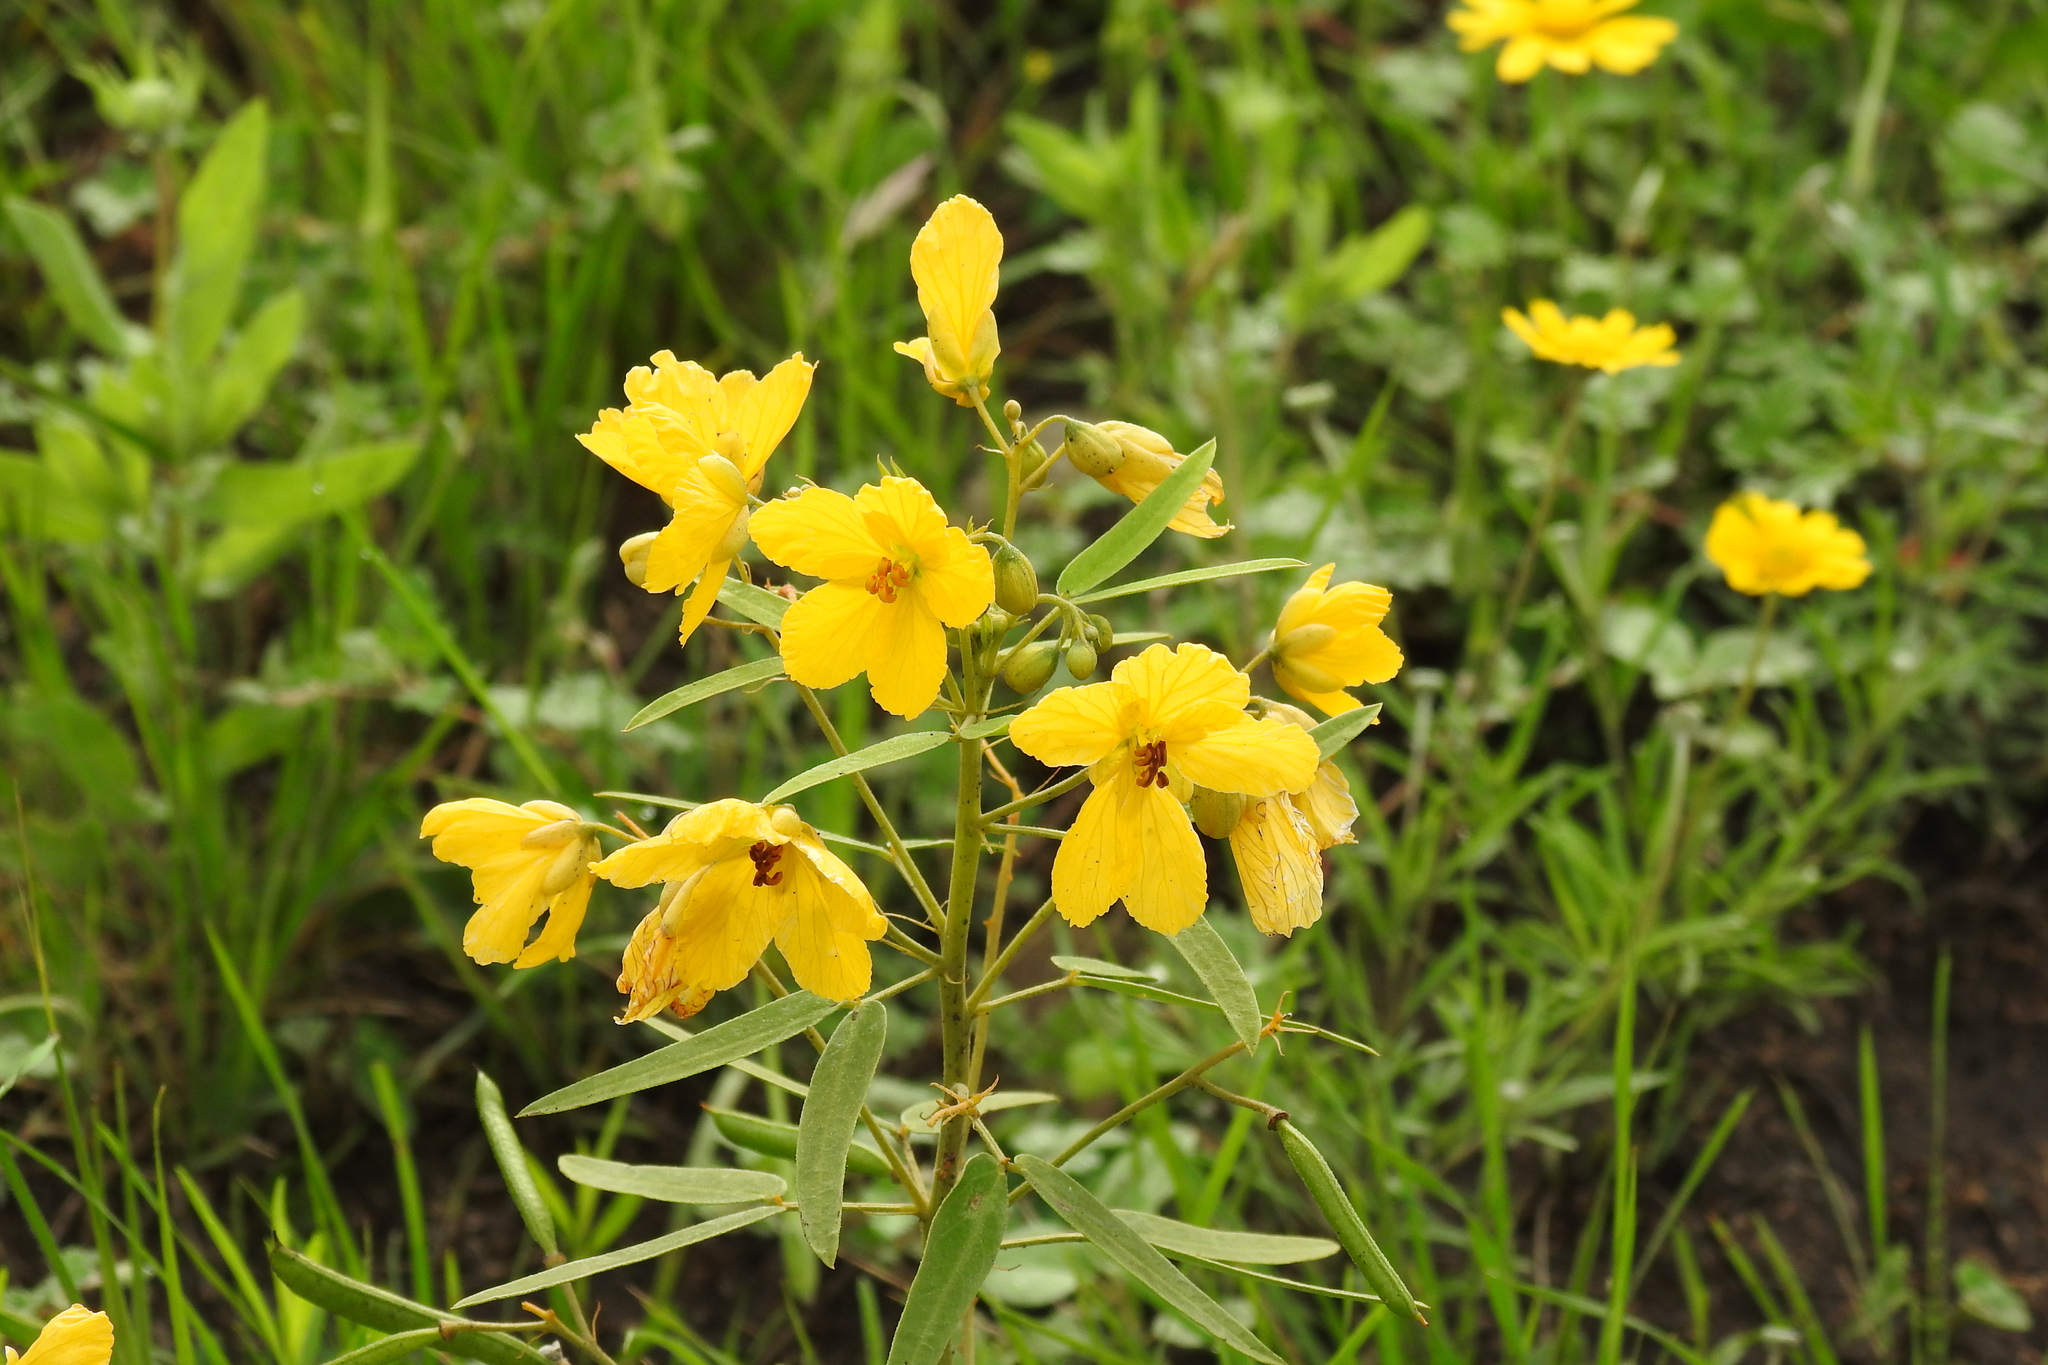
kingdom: Plantae
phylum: Tracheophyta
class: Magnoliopsida
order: Fabales
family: Fabaceae
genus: Senna
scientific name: Senna roemeriana
